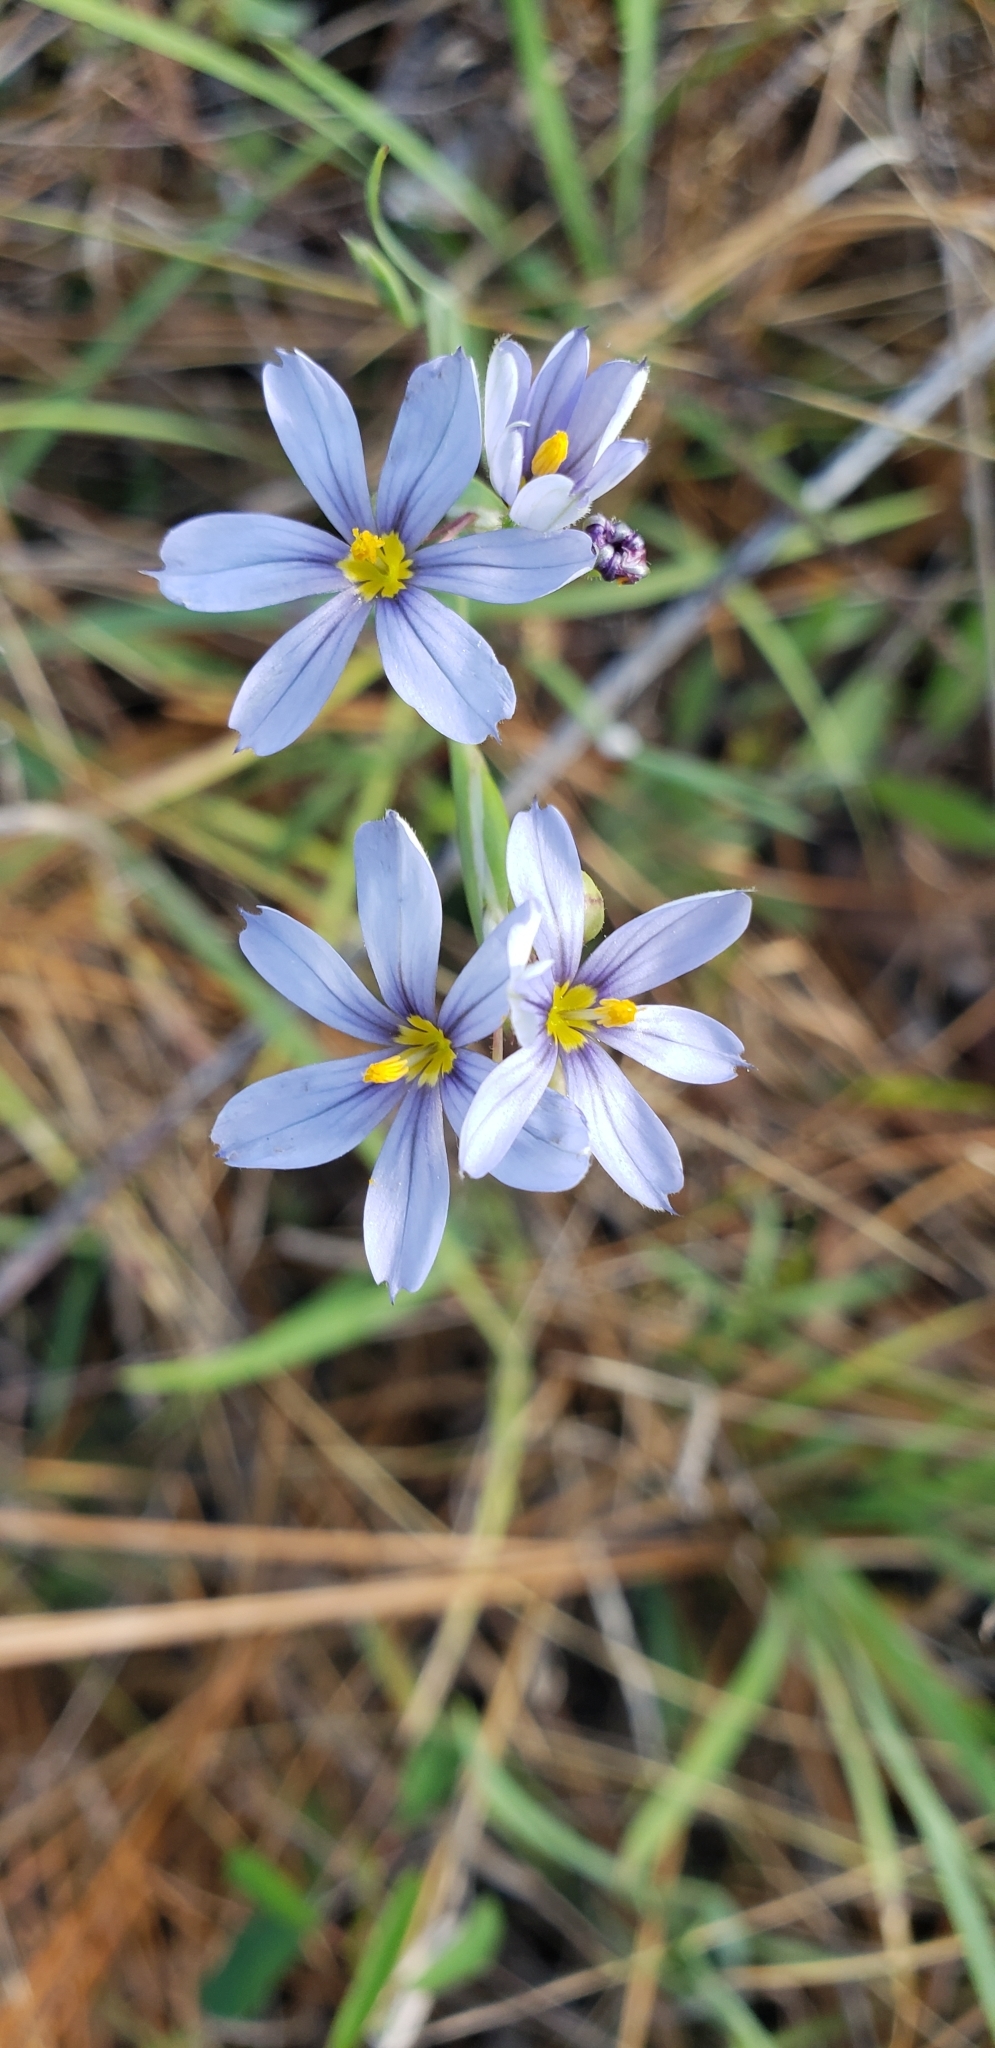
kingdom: Plantae
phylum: Tracheophyta
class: Liliopsida
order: Asparagales
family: Iridaceae
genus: Sisyrinchium
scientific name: Sisyrinchium angustifolium
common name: Narrow-leaf blue-eyed-grass
